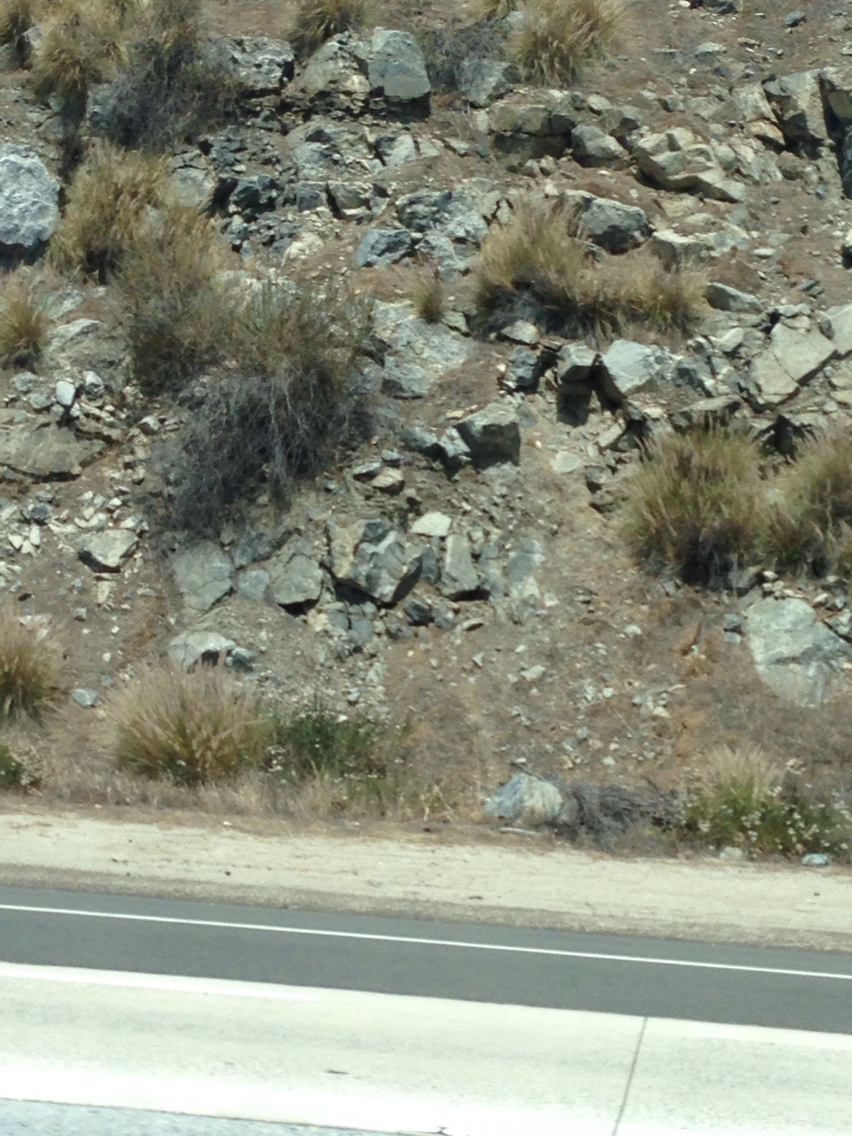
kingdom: Plantae
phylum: Tracheophyta
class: Liliopsida
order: Poales
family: Poaceae
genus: Cenchrus
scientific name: Cenchrus setaceus
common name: Crimson fountaingrass
